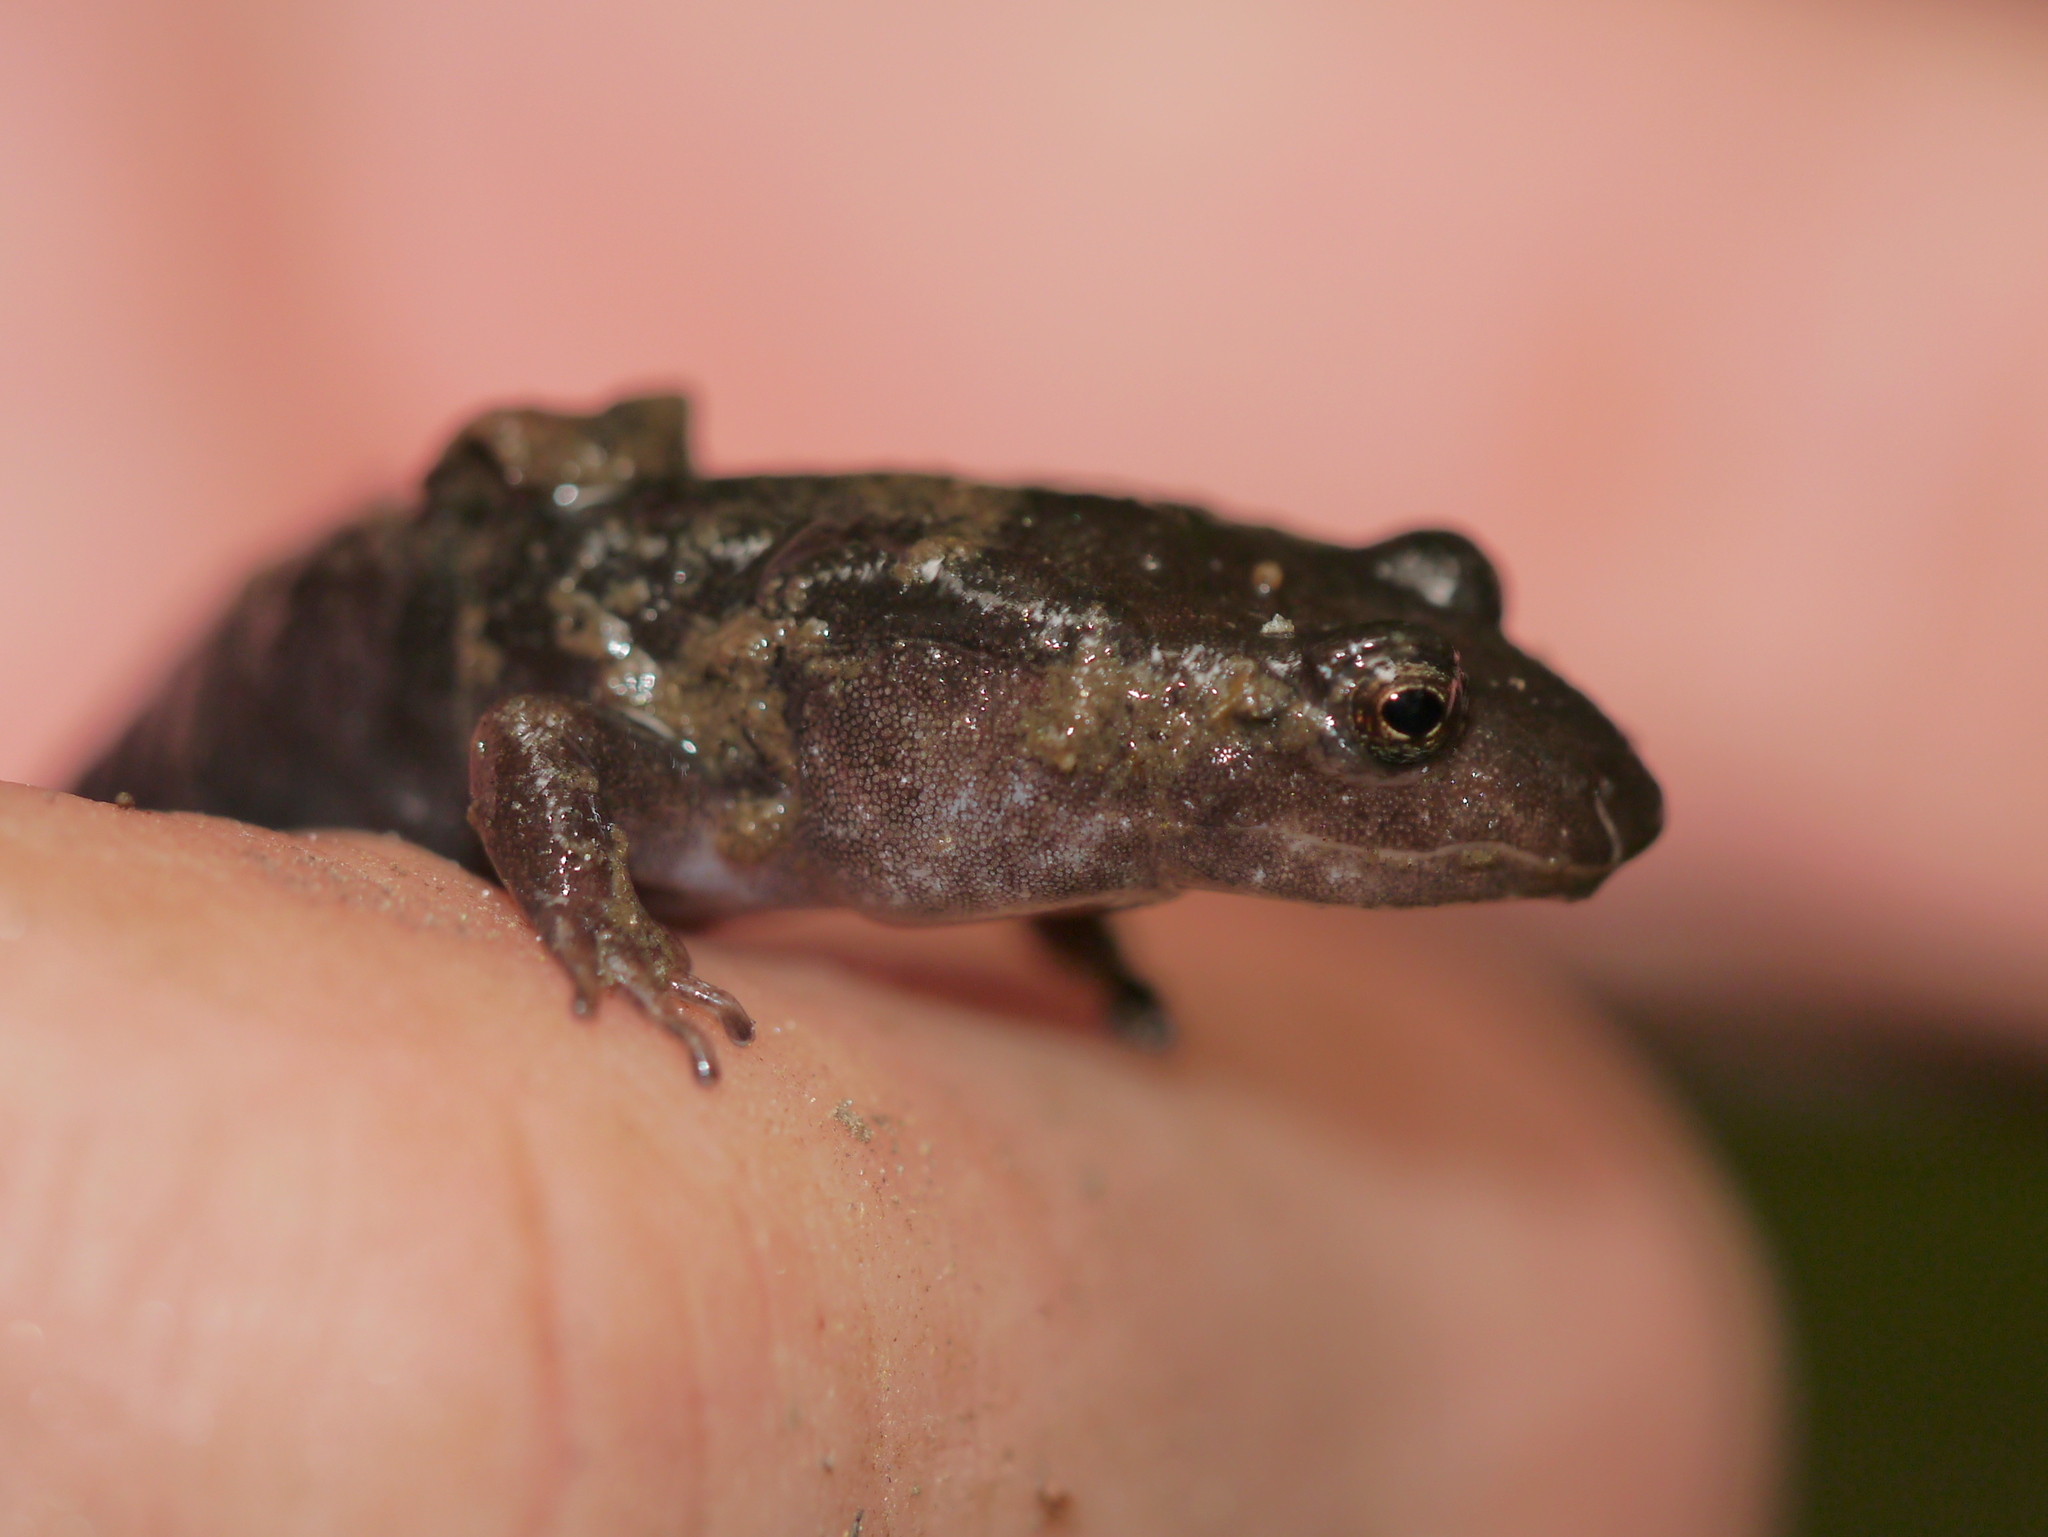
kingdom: Animalia
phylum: Chordata
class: Amphibia
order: Caudata
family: Plethodontidae
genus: Desmognathus
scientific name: Desmognathus
